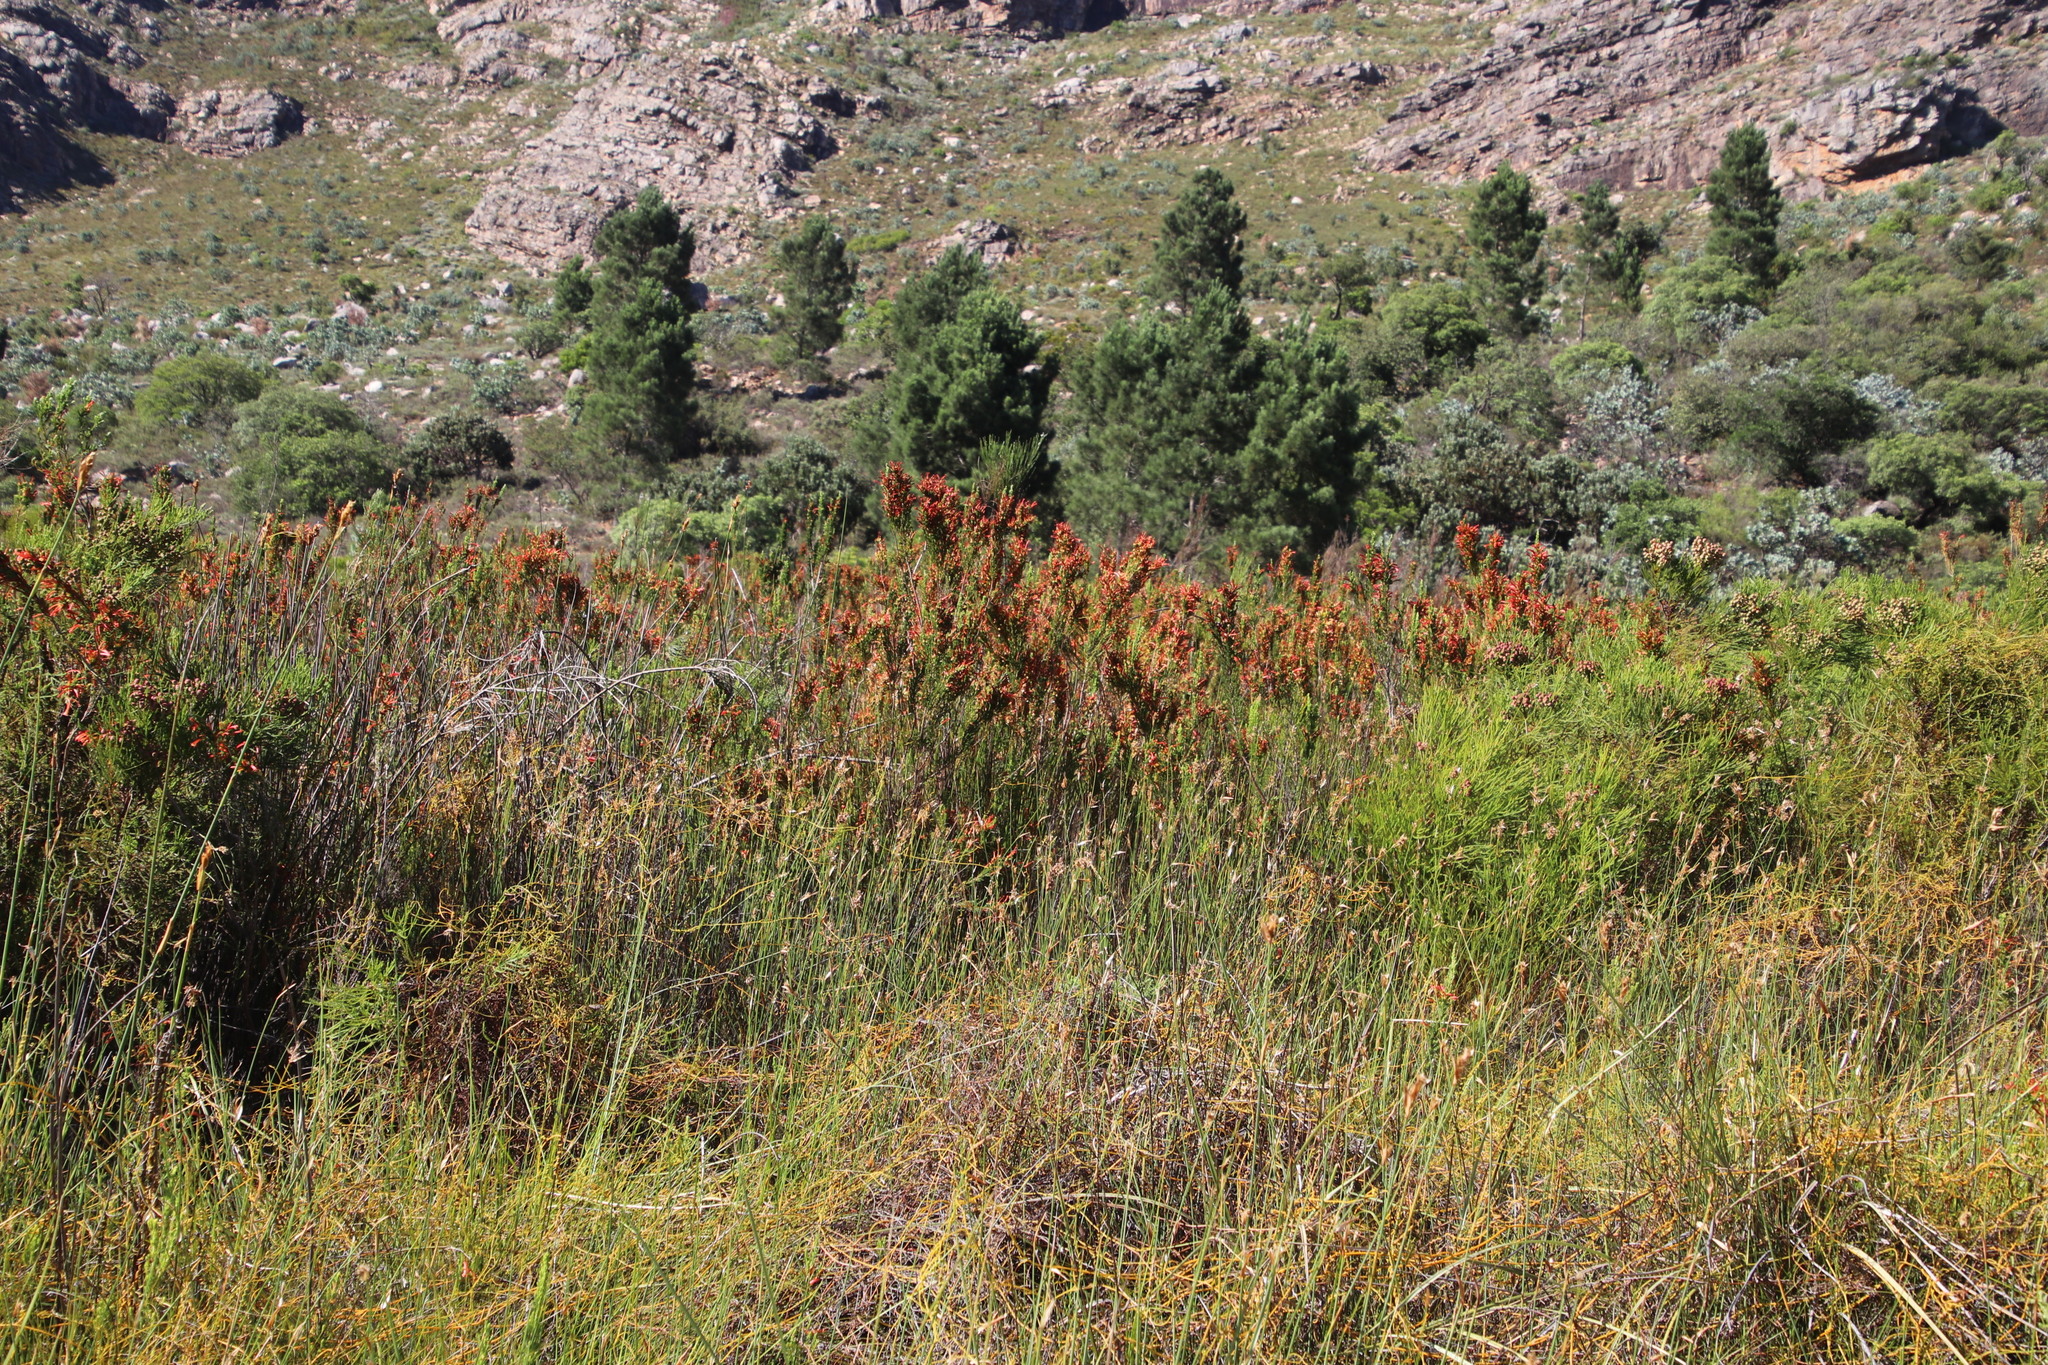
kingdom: Plantae
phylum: Tracheophyta
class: Magnoliopsida
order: Ericales
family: Ericaceae
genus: Erica
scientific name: Erica curviflora
